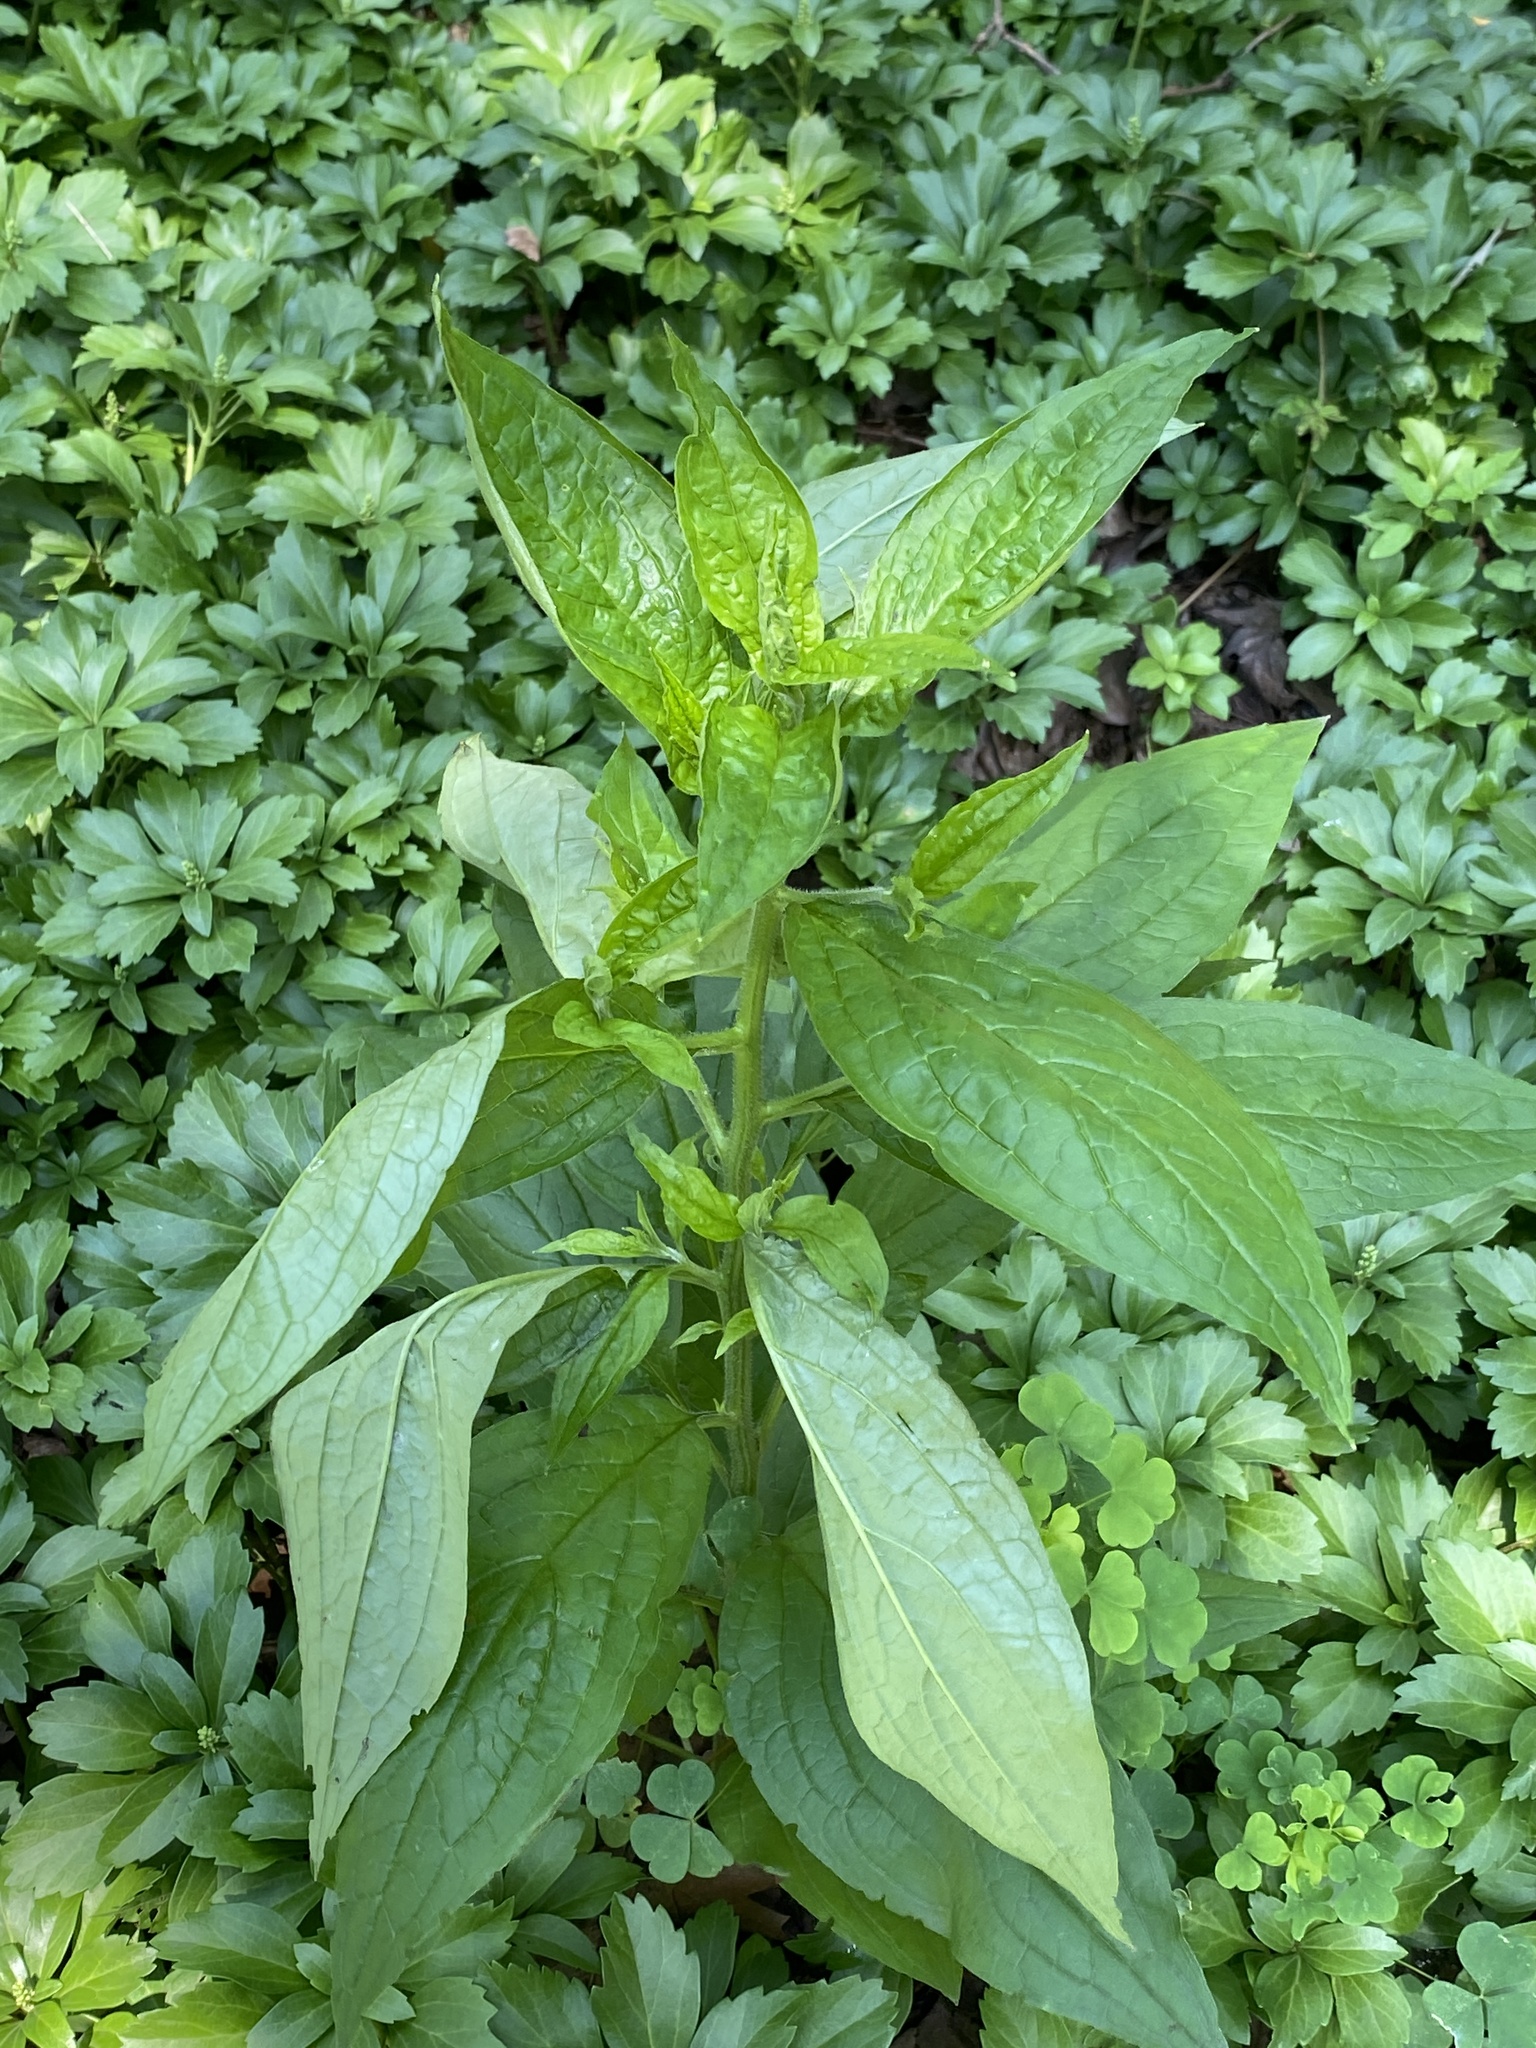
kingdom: Plantae
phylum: Tracheophyta
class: Magnoliopsida
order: Boraginales
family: Boraginaceae
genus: Hackelia
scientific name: Hackelia virginiana
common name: Beggar's-lice
